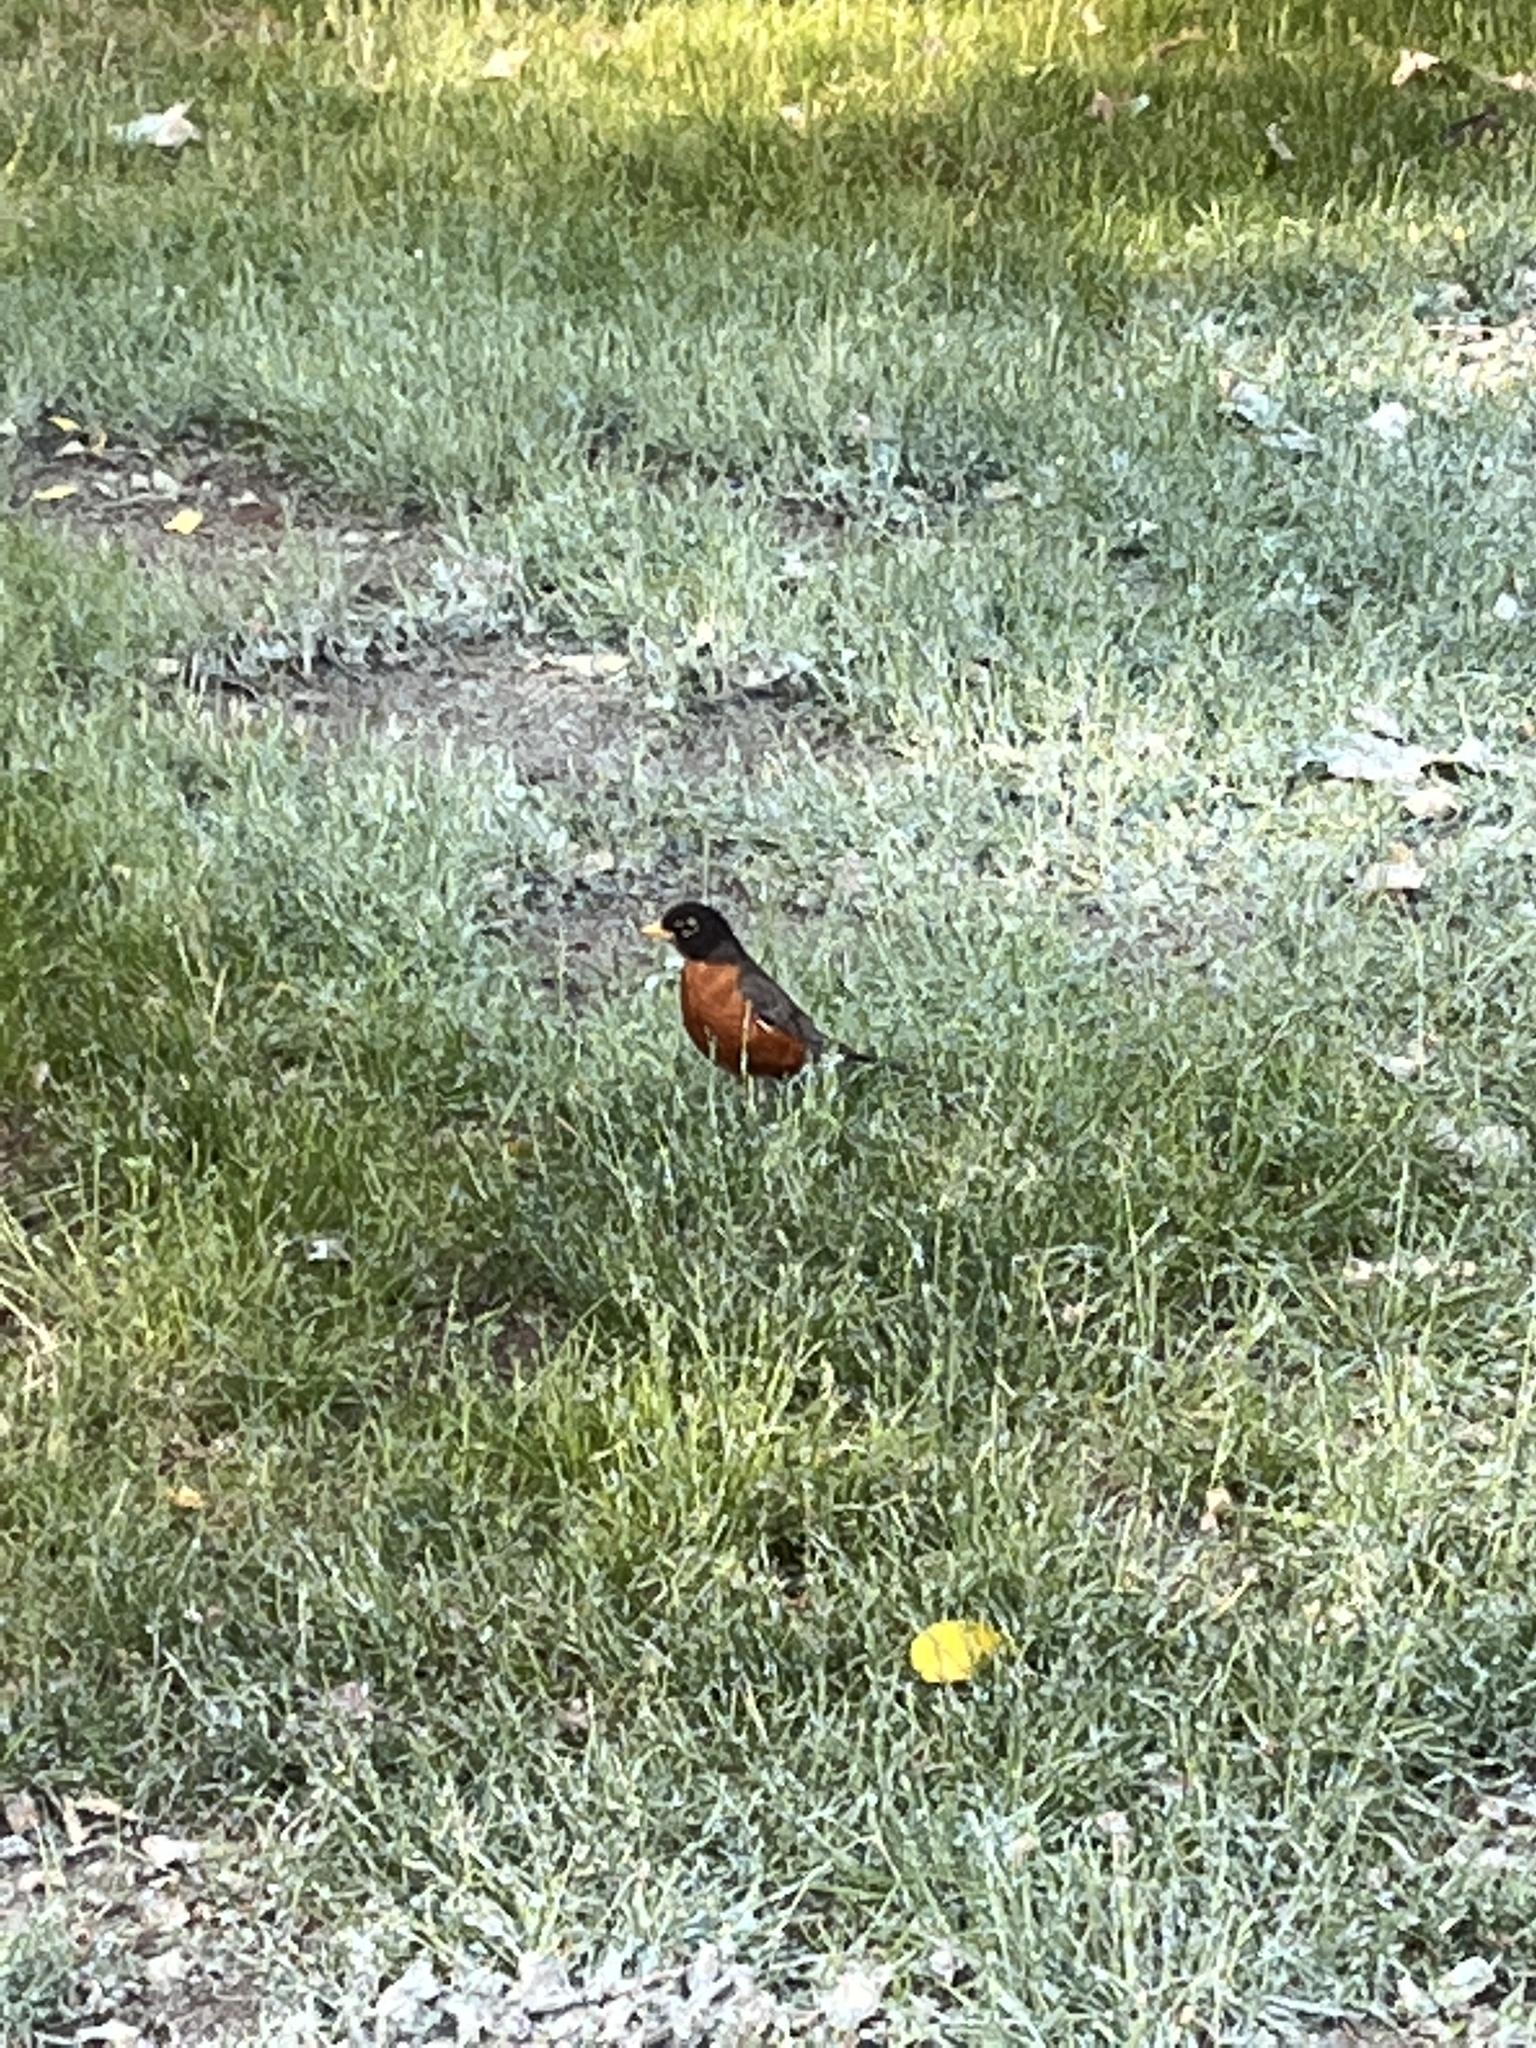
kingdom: Animalia
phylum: Chordata
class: Aves
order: Passeriformes
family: Turdidae
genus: Turdus
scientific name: Turdus migratorius
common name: American robin
